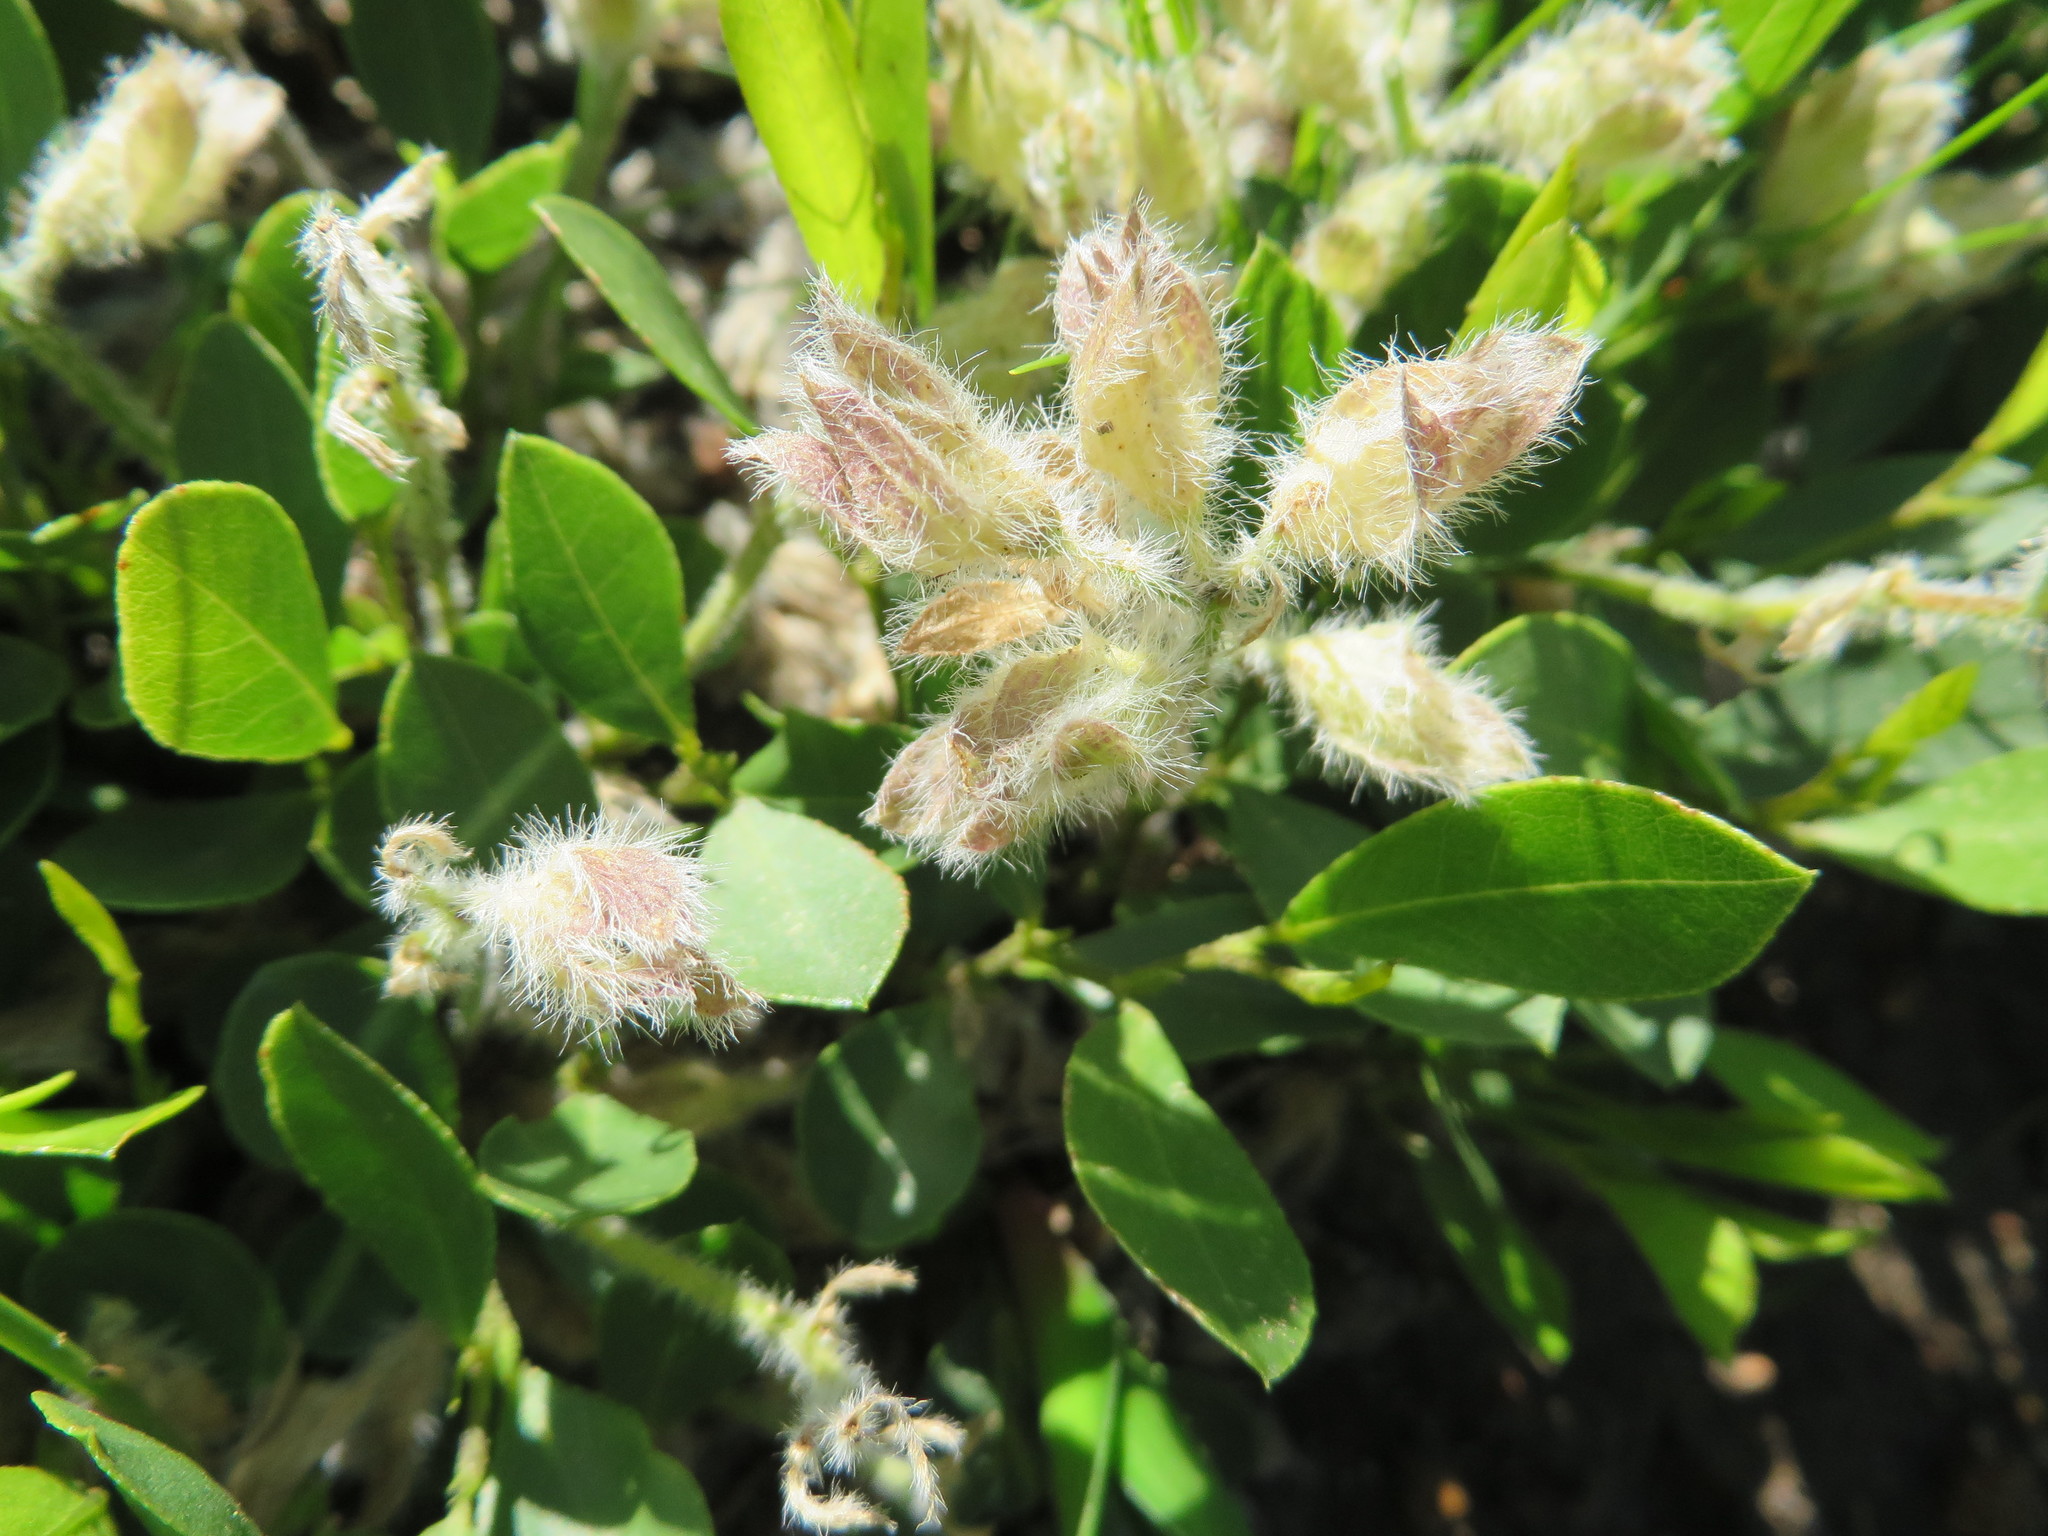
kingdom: Plantae
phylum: Tracheophyta
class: Magnoliopsida
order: Fabales
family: Fabaceae
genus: Psoralea
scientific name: Psoralea rotundifolia
